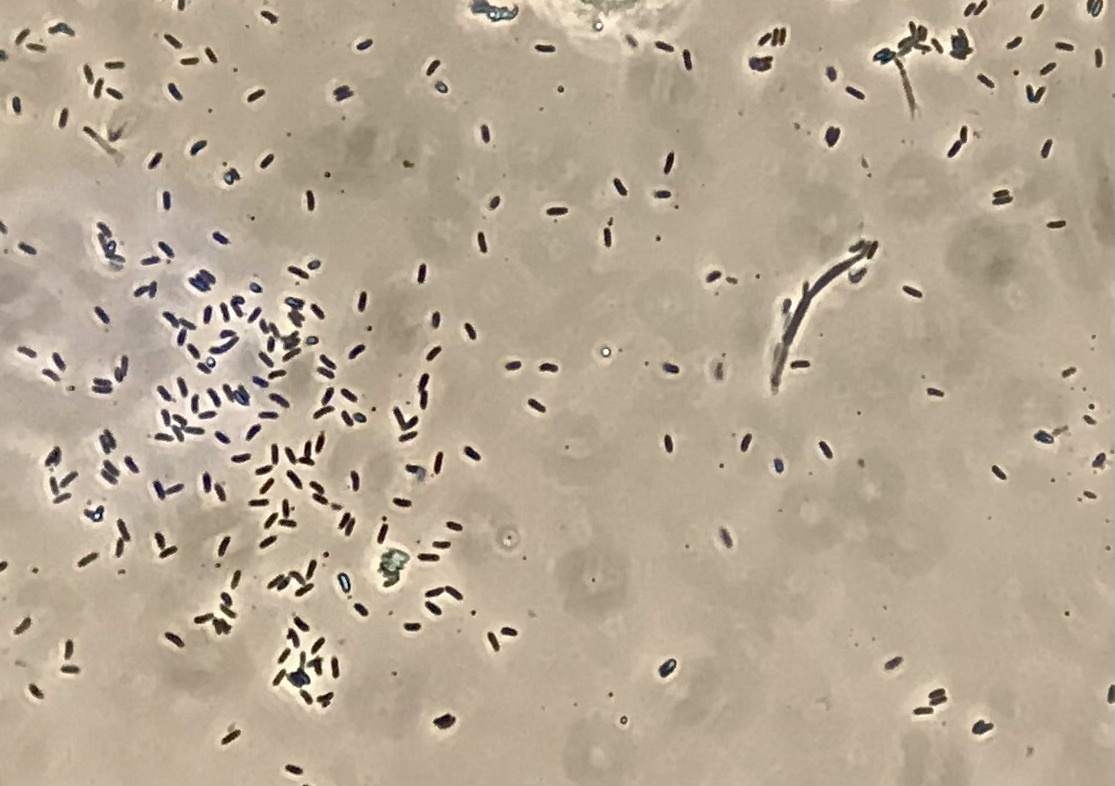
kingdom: Fungi
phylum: Ascomycota
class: Sordariomycetes
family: Thyridiaceae
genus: Thyronectria
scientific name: Thyronectria balsamea
